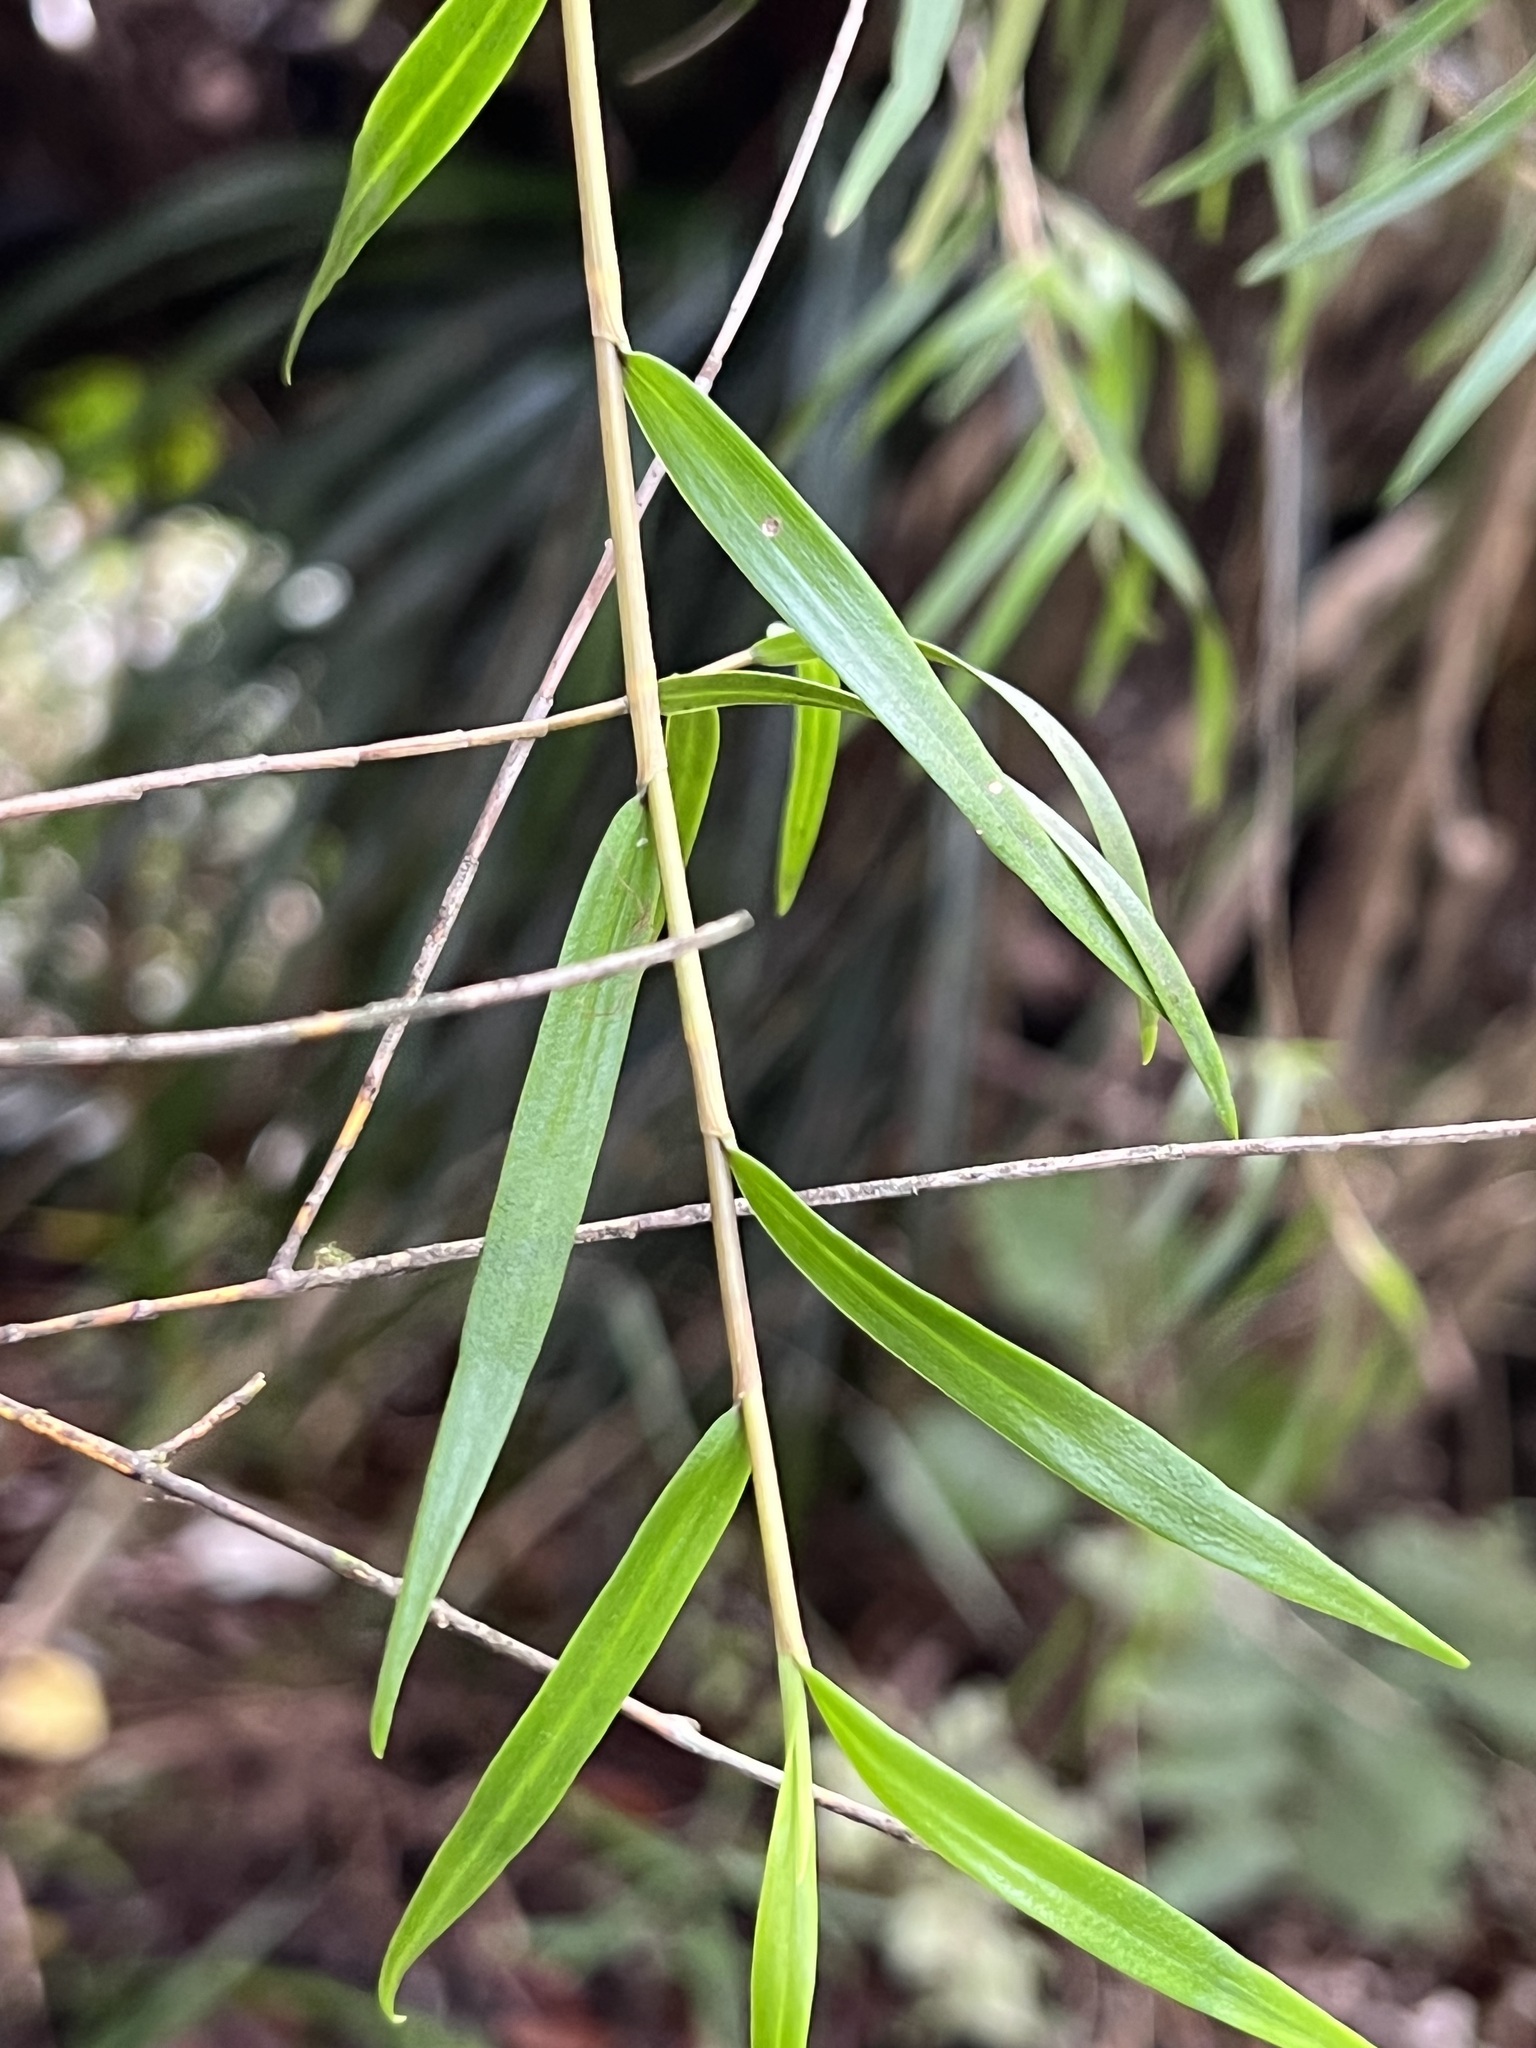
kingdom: Plantae
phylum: Tracheophyta
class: Liliopsida
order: Asparagales
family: Orchidaceae
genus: Dendrobium
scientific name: Dendrobium cunninghamii
